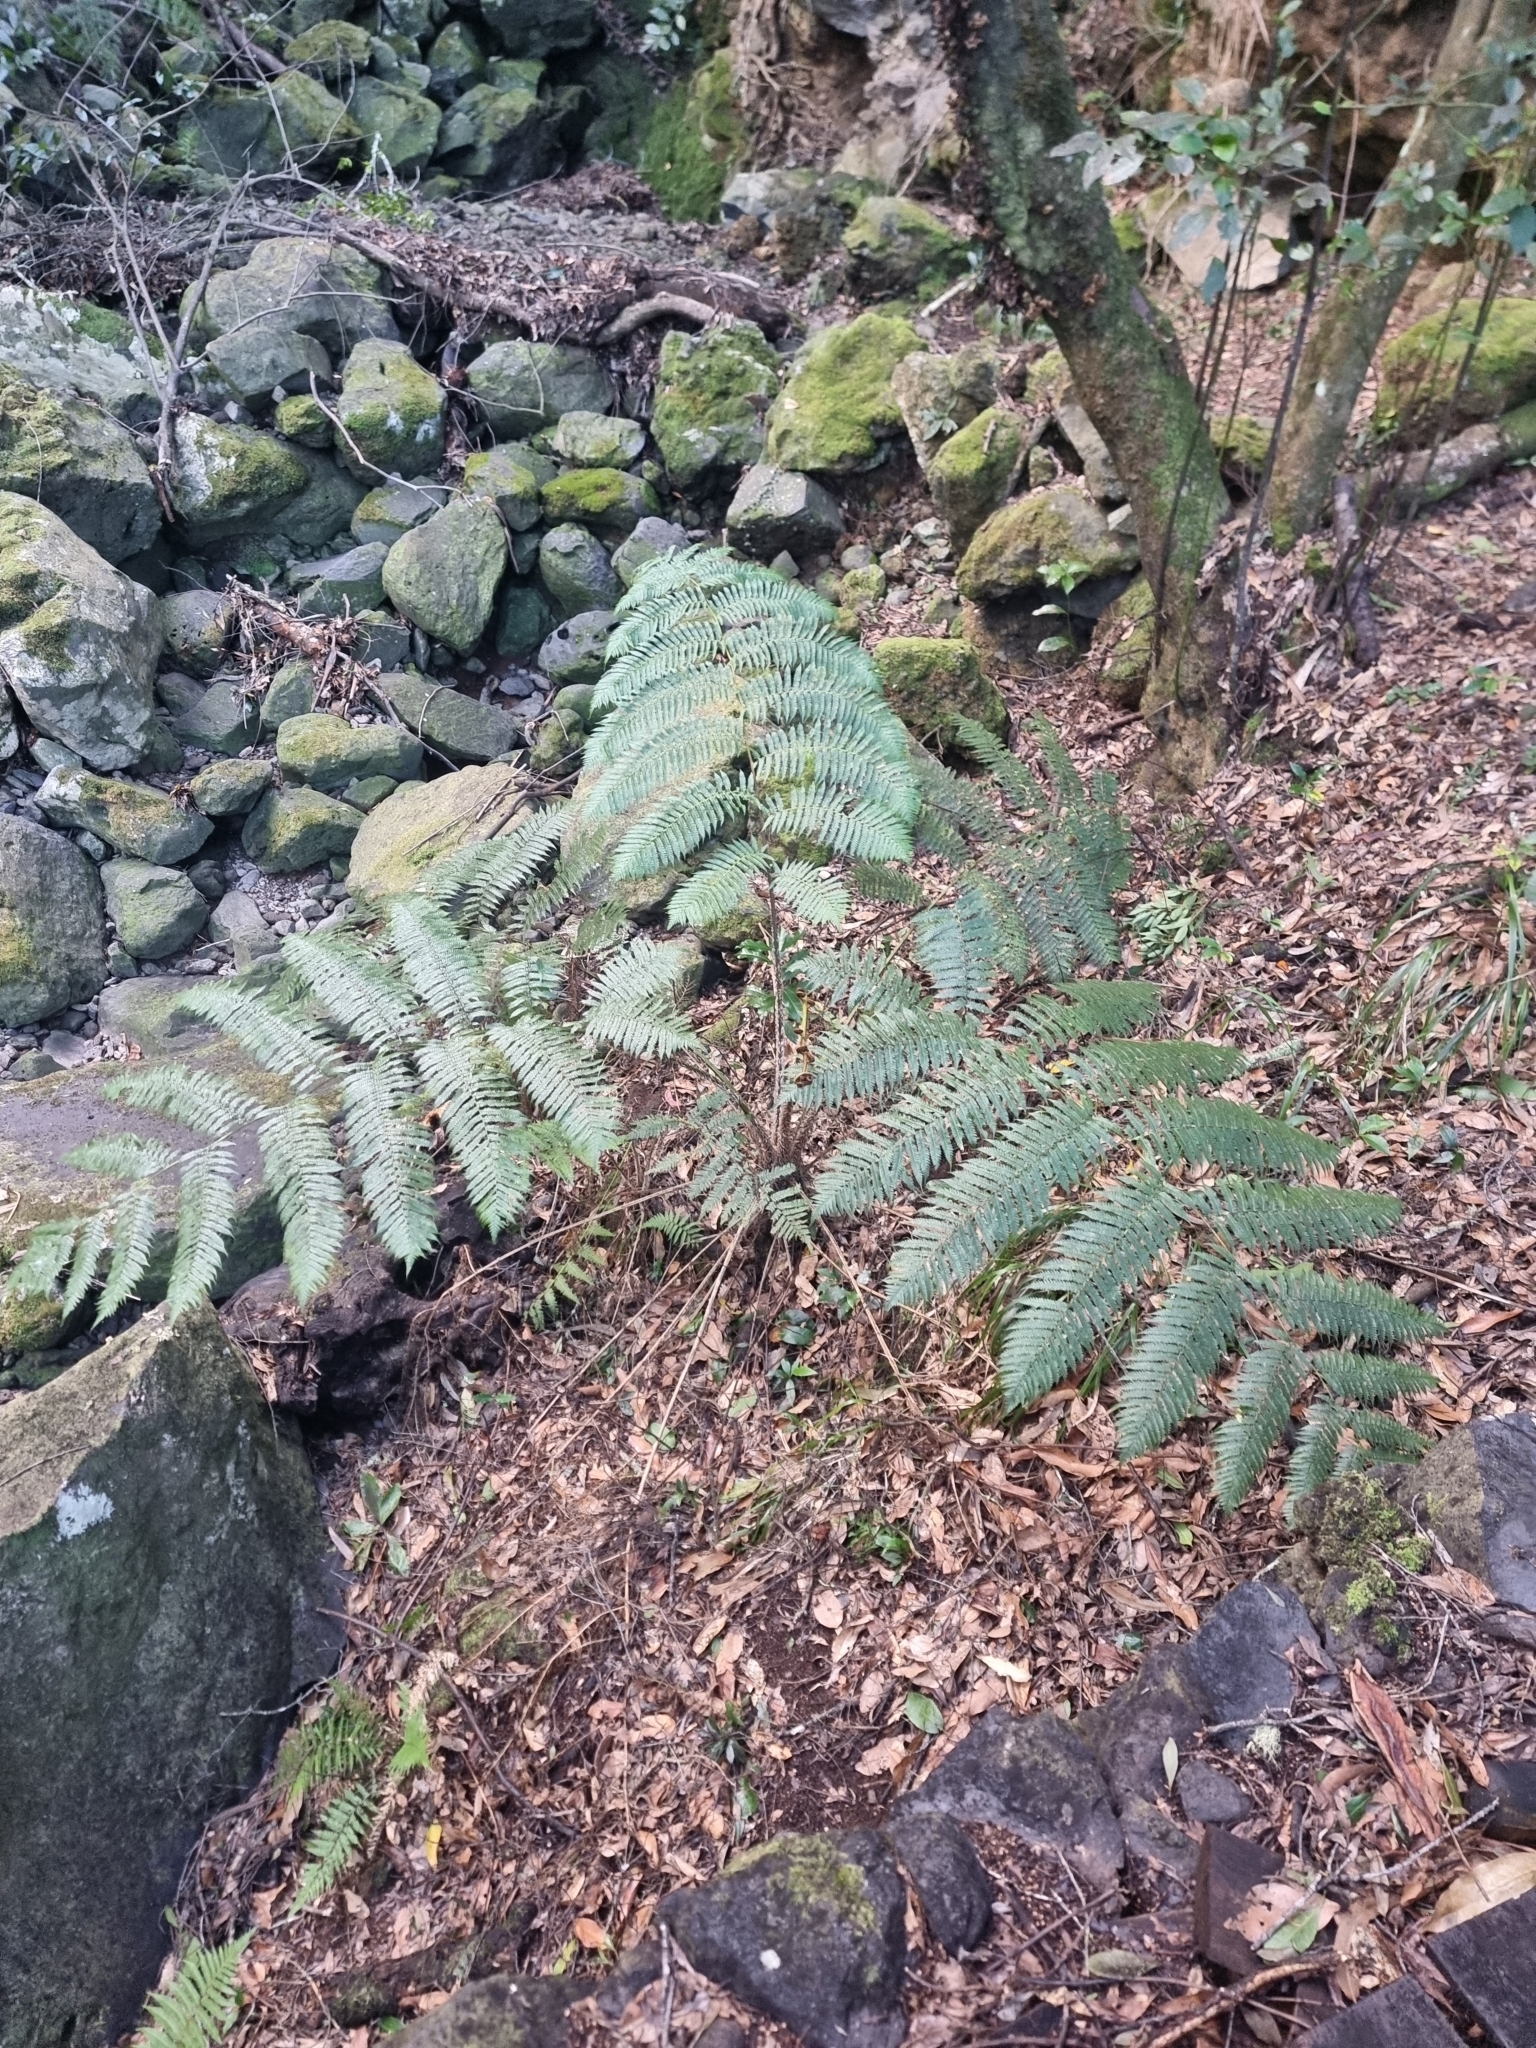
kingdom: Plantae
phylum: Tracheophyta
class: Polypodiopsida
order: Cyatheales
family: Cyatheaceae
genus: Sphaeropteris
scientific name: Sphaeropteris cooperi
